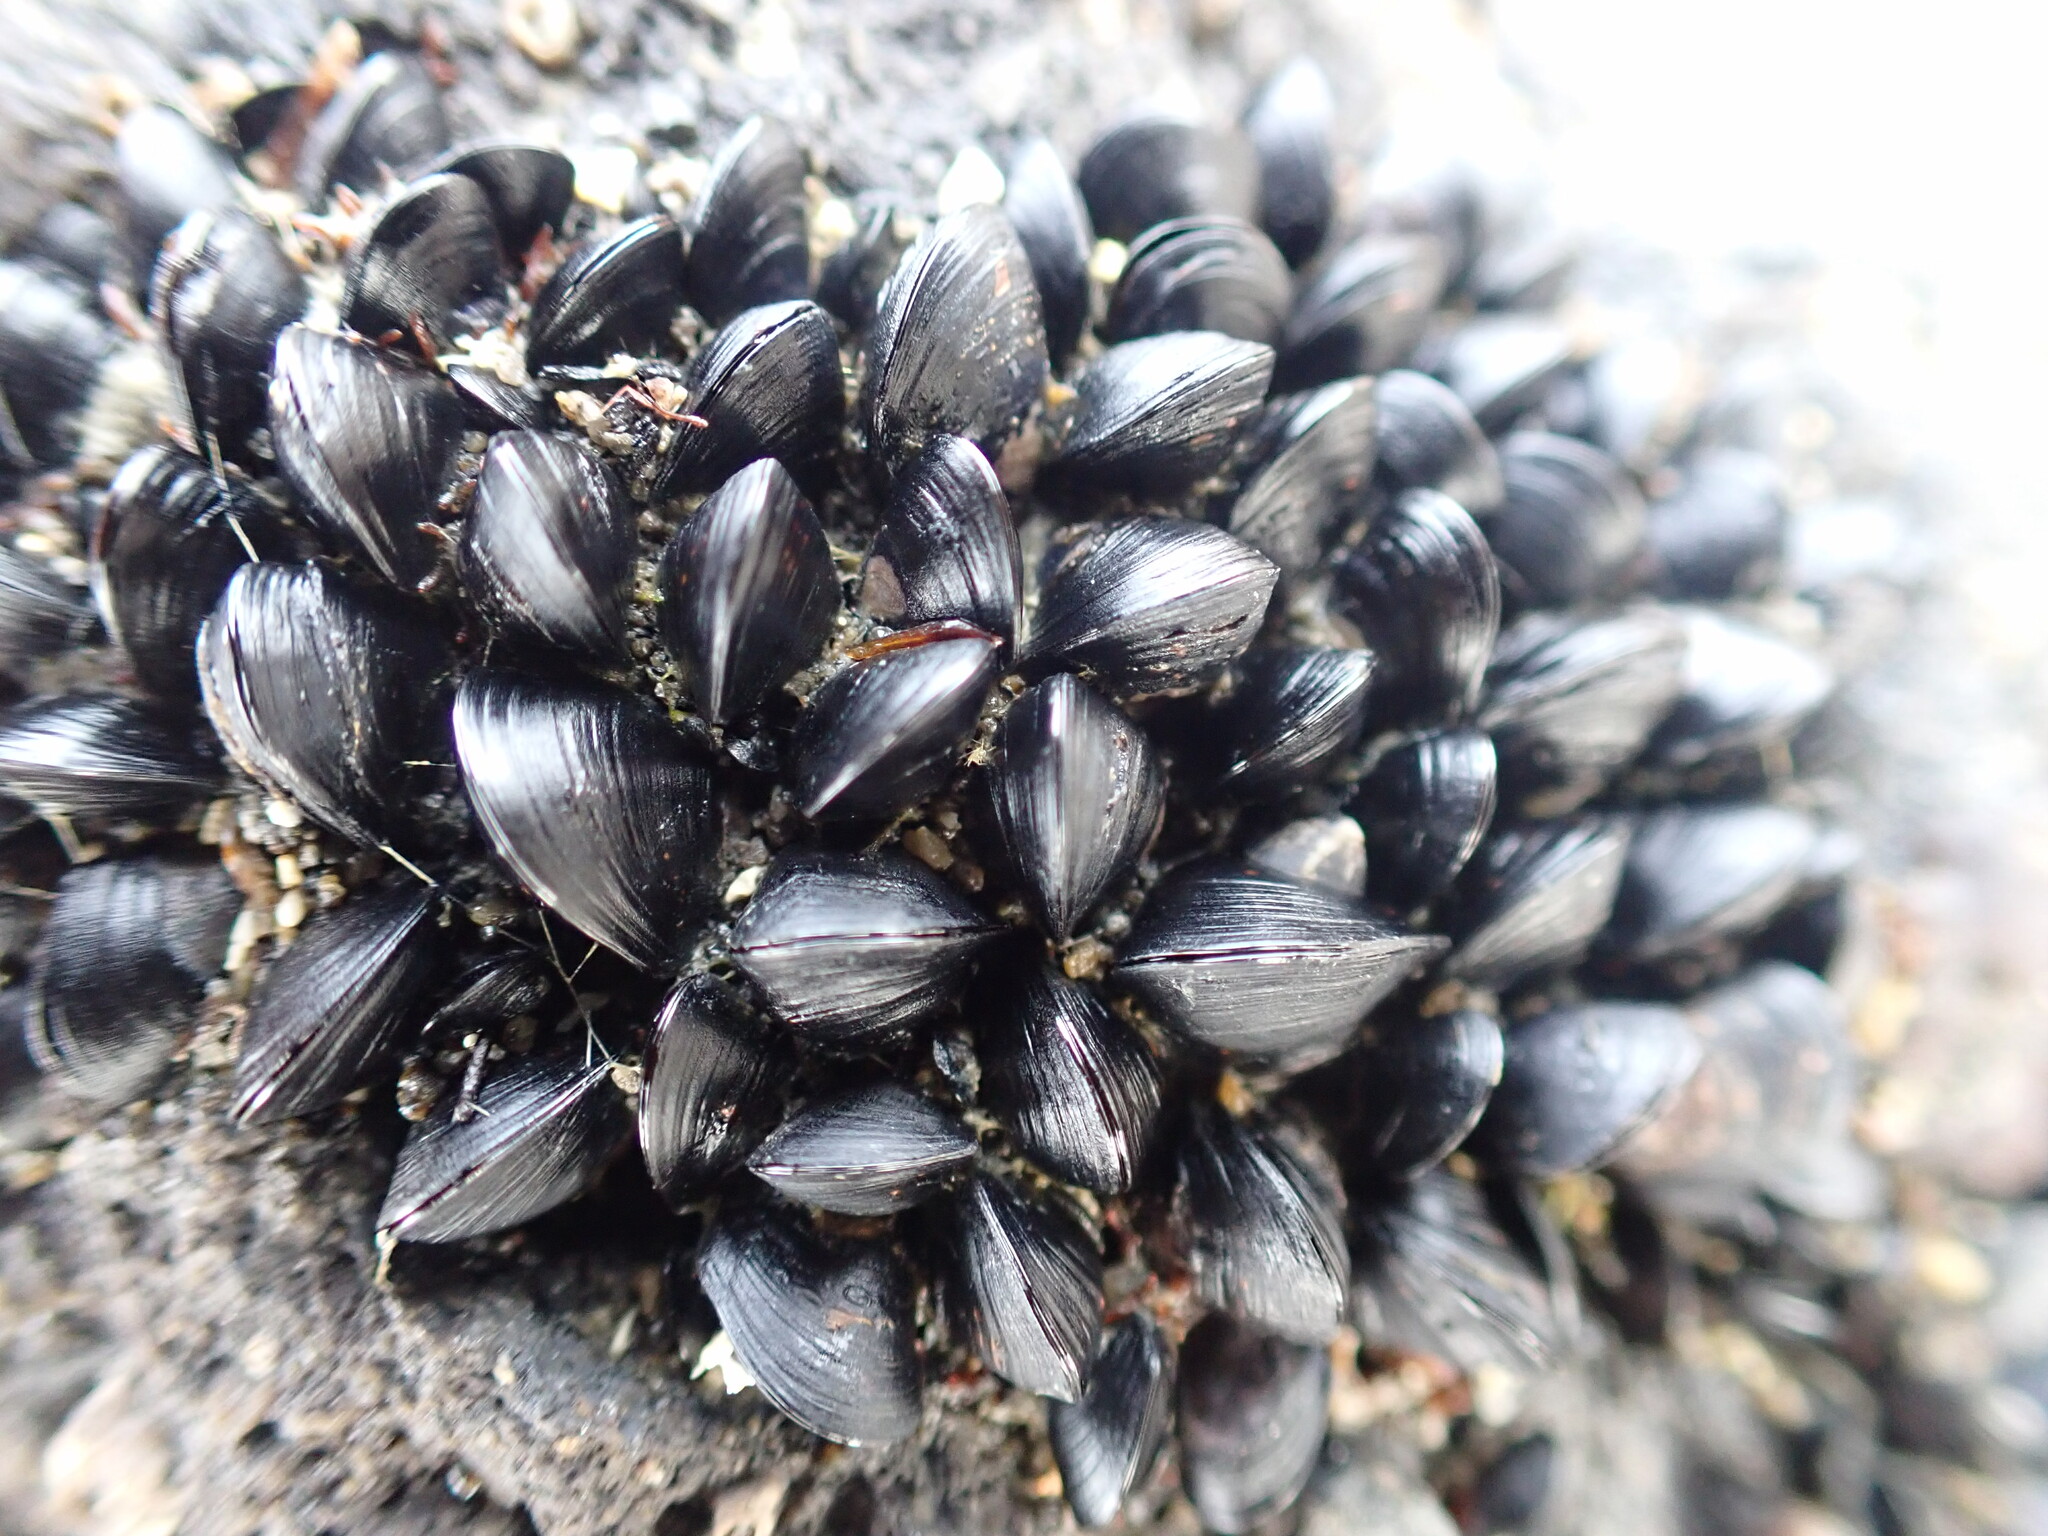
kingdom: Animalia
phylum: Mollusca
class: Bivalvia
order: Mytilida
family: Mytilidae
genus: Xenostrobus
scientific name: Xenostrobus neozelanicus
